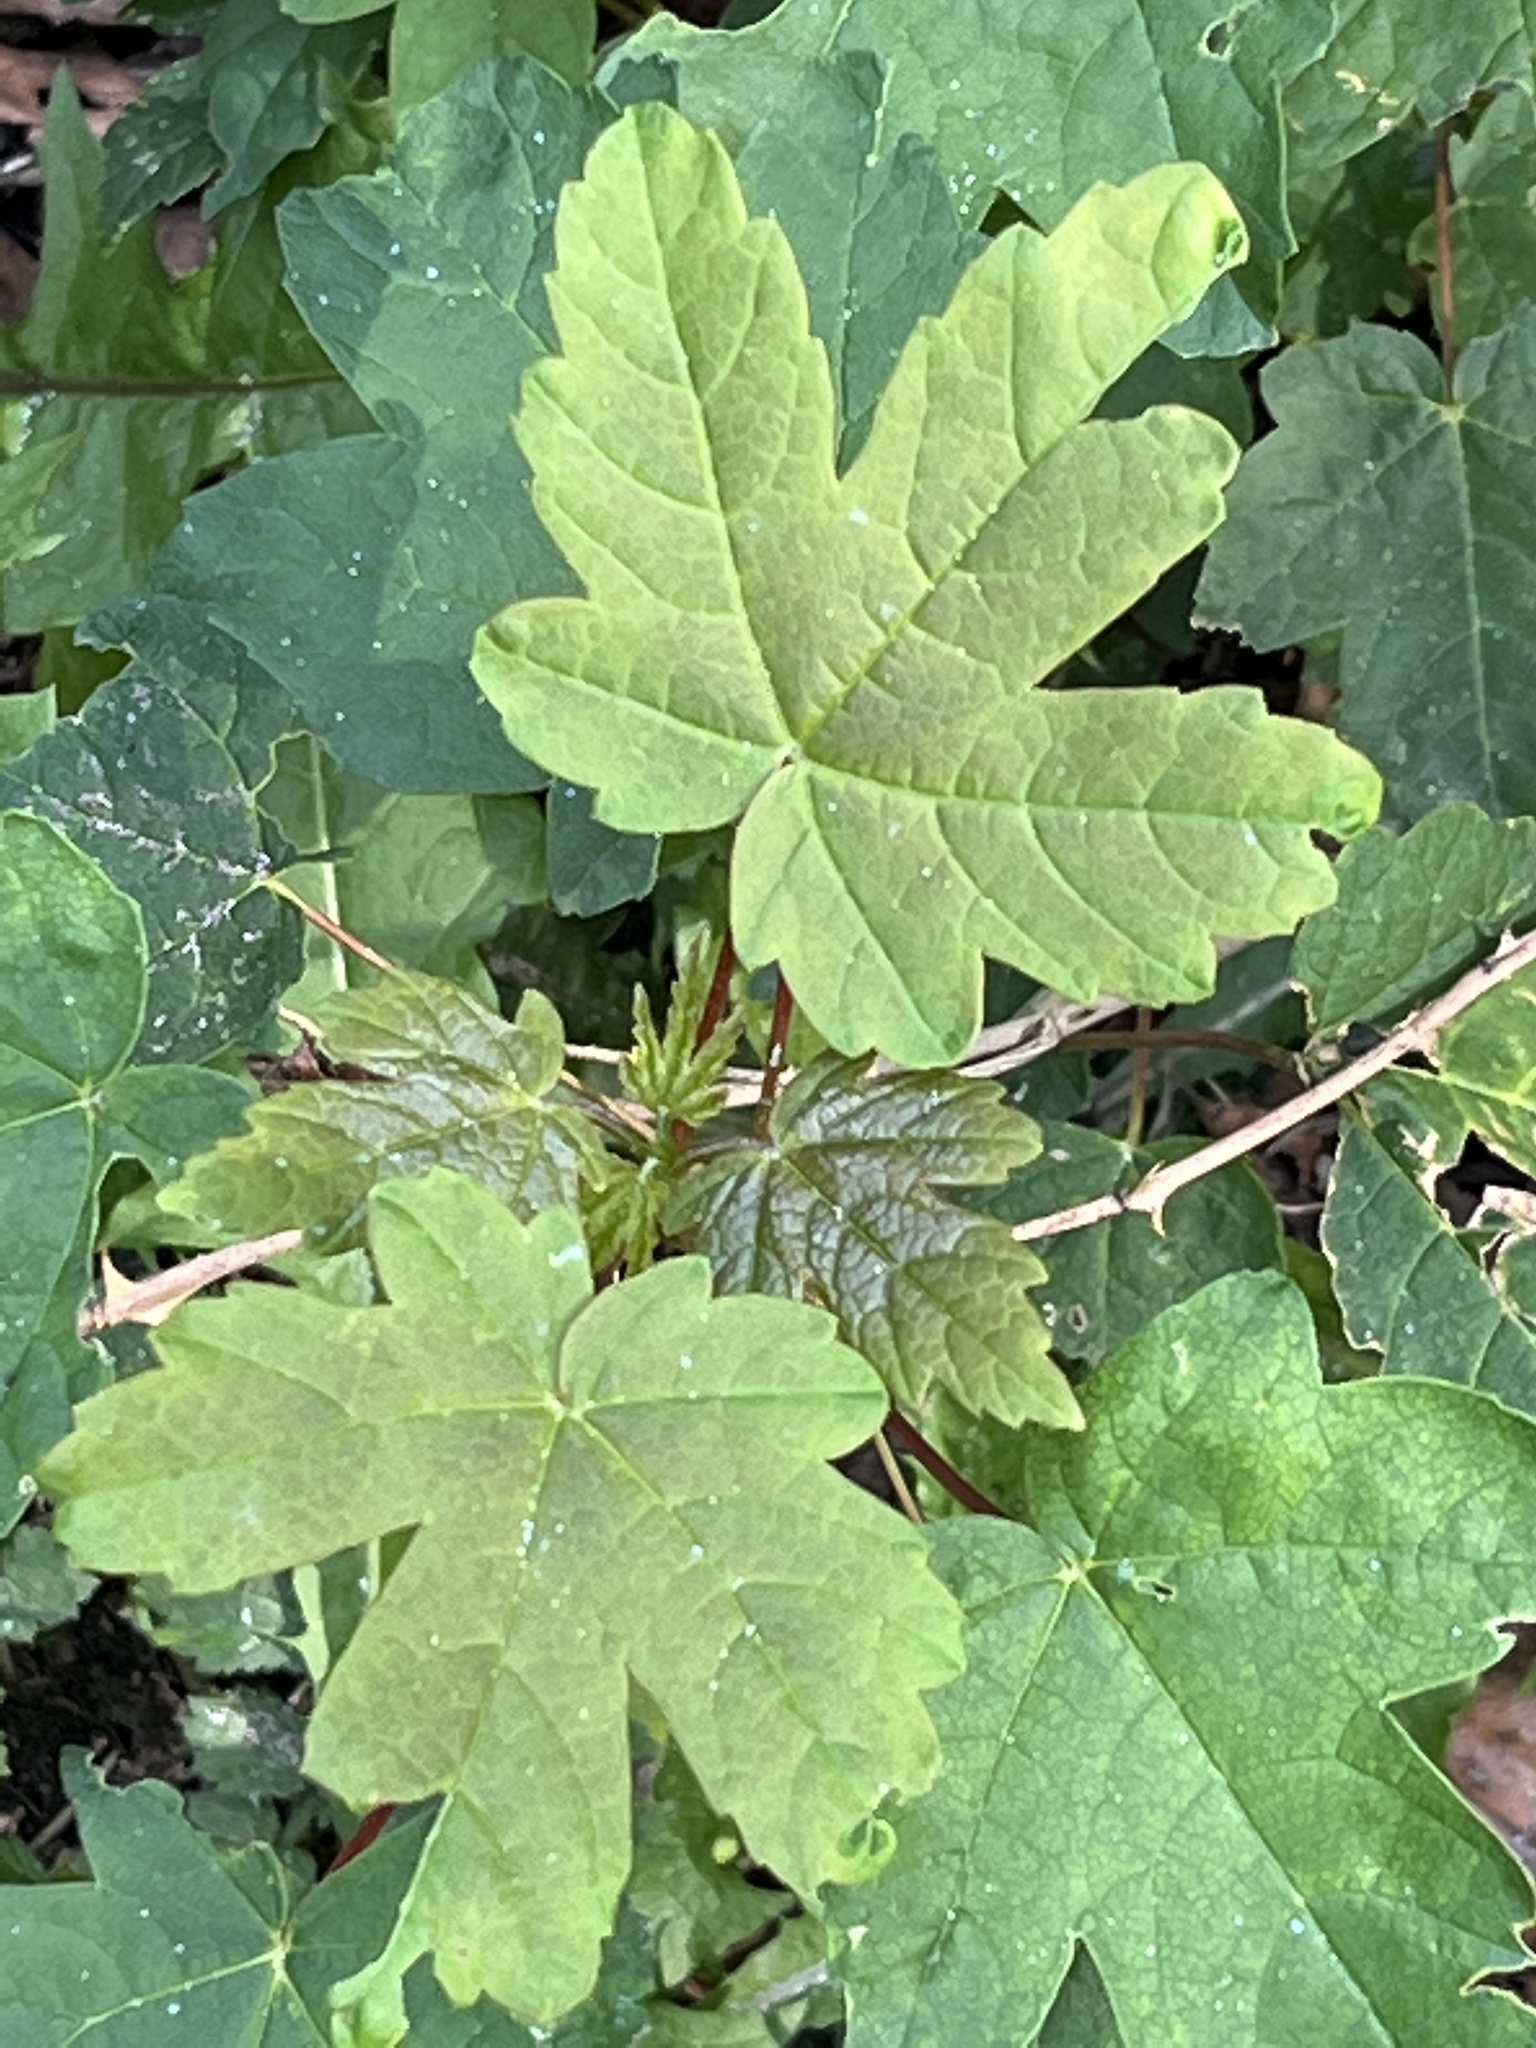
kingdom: Plantae
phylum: Tracheophyta
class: Magnoliopsida
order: Sapindales
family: Sapindaceae
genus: Acer
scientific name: Acer pseudoplatanus
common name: Sycamore
